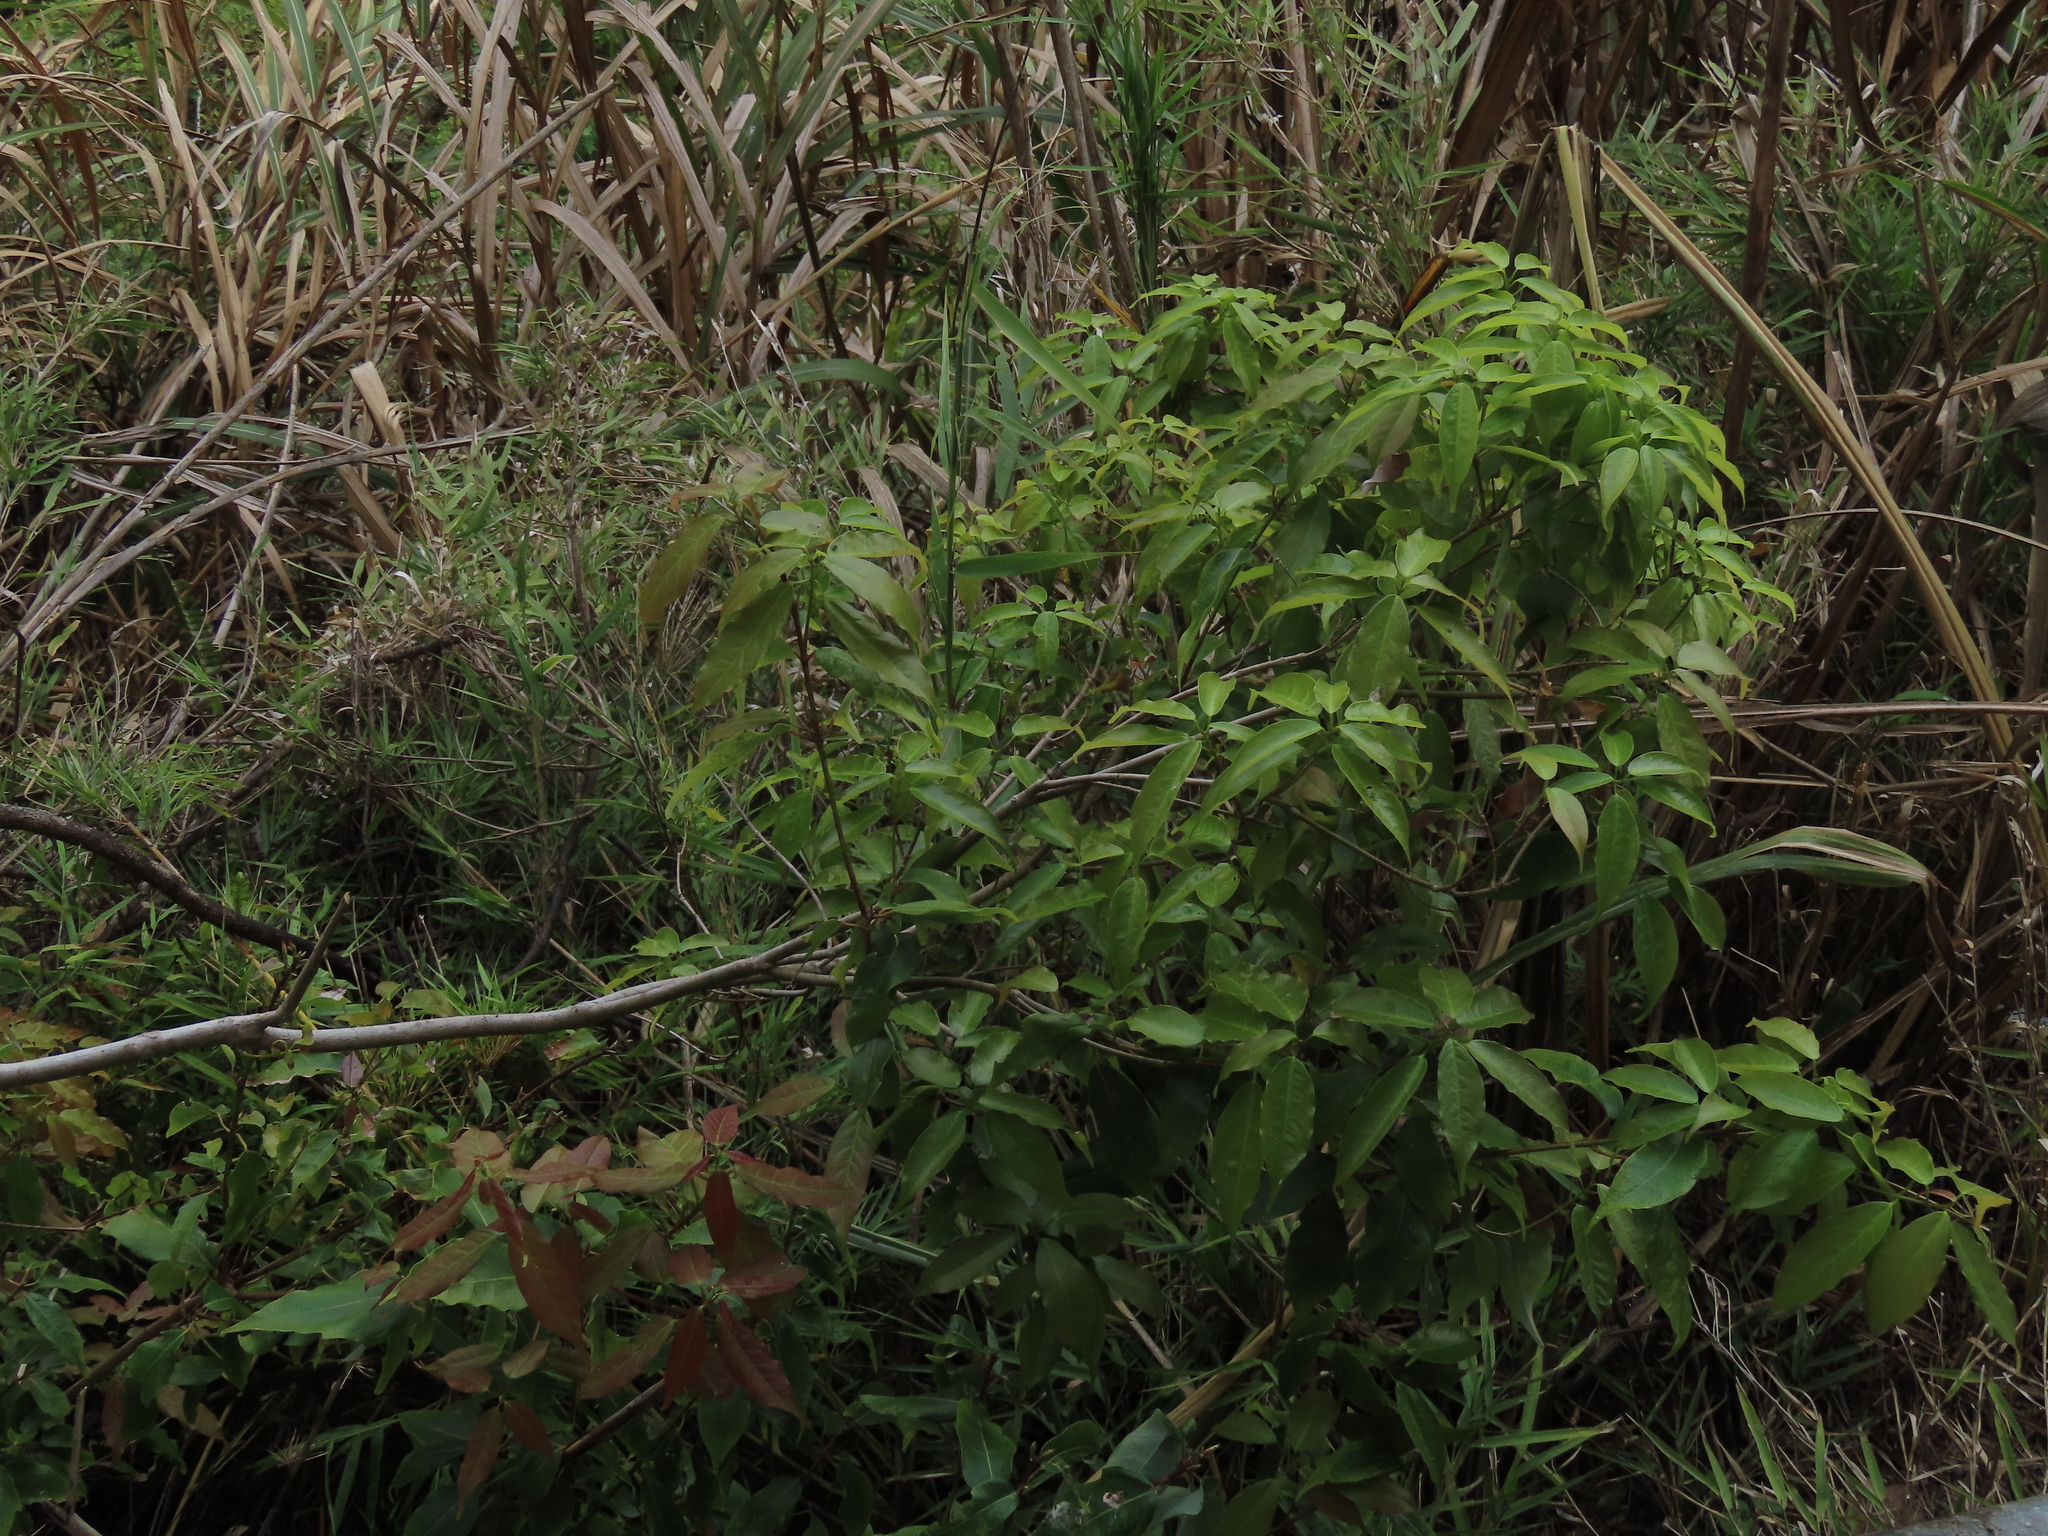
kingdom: Plantae
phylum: Tracheophyta
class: Magnoliopsida
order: Sapindales
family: Sapindaceae
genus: Acer
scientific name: Acer oblongum
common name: Himalayan maple
